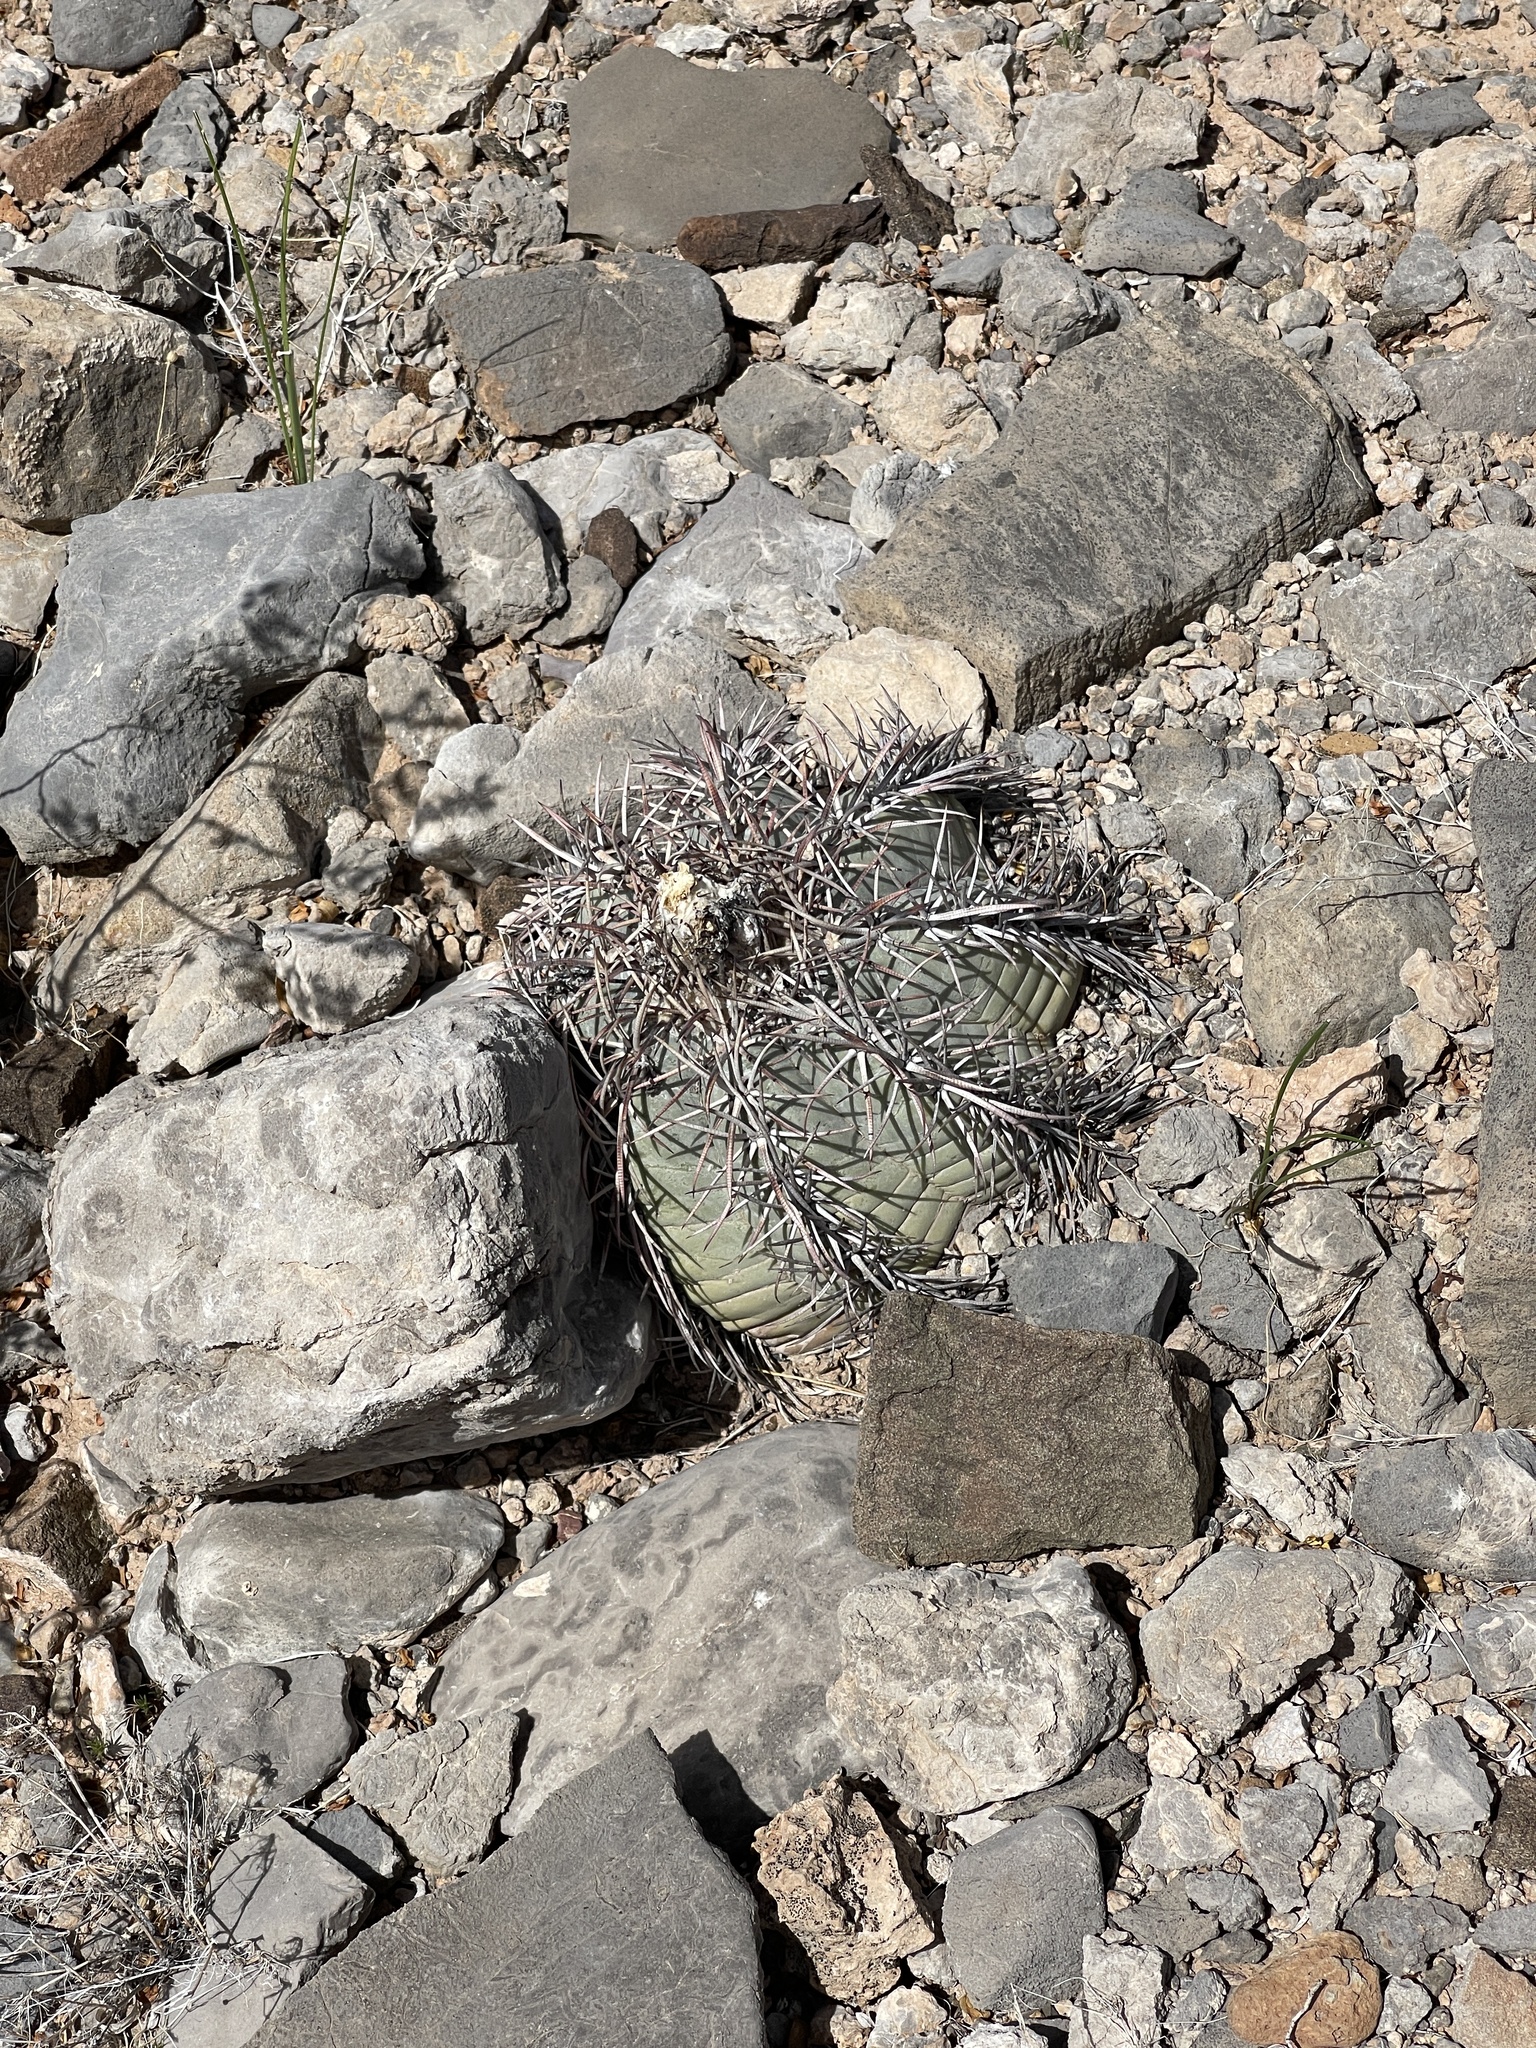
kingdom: Plantae
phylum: Tracheophyta
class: Magnoliopsida
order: Caryophyllales
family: Cactaceae
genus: Echinocactus
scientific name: Echinocactus horizonthalonius
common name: Devilshead
